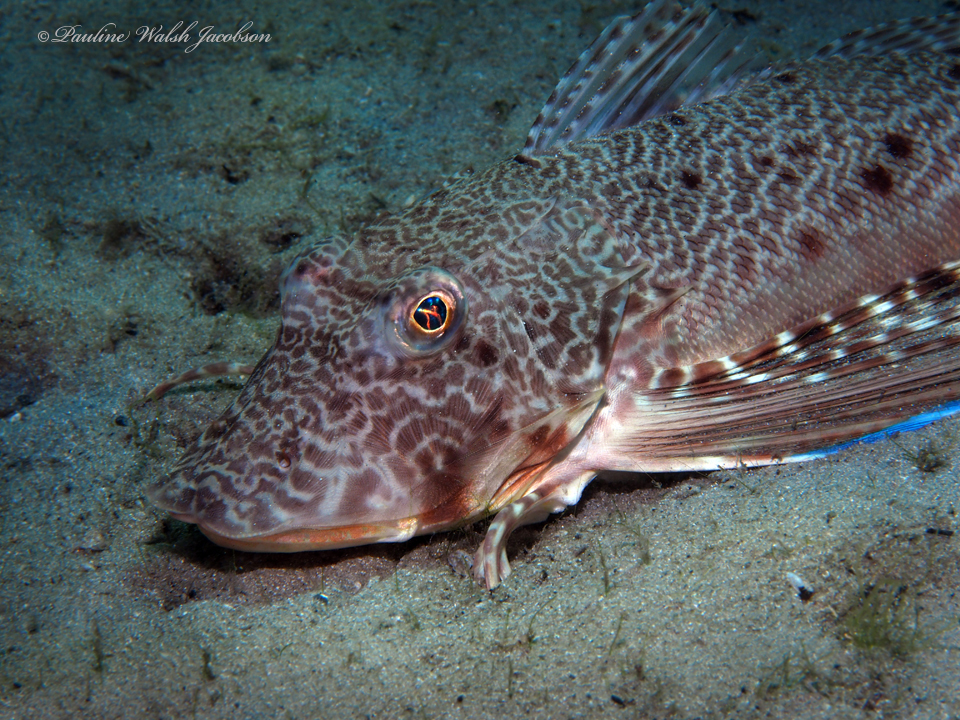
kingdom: Animalia
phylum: Chordata
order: Scorpaeniformes
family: Triglidae
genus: Prionotus
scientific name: Prionotus scitulus
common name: Leopard searobin
